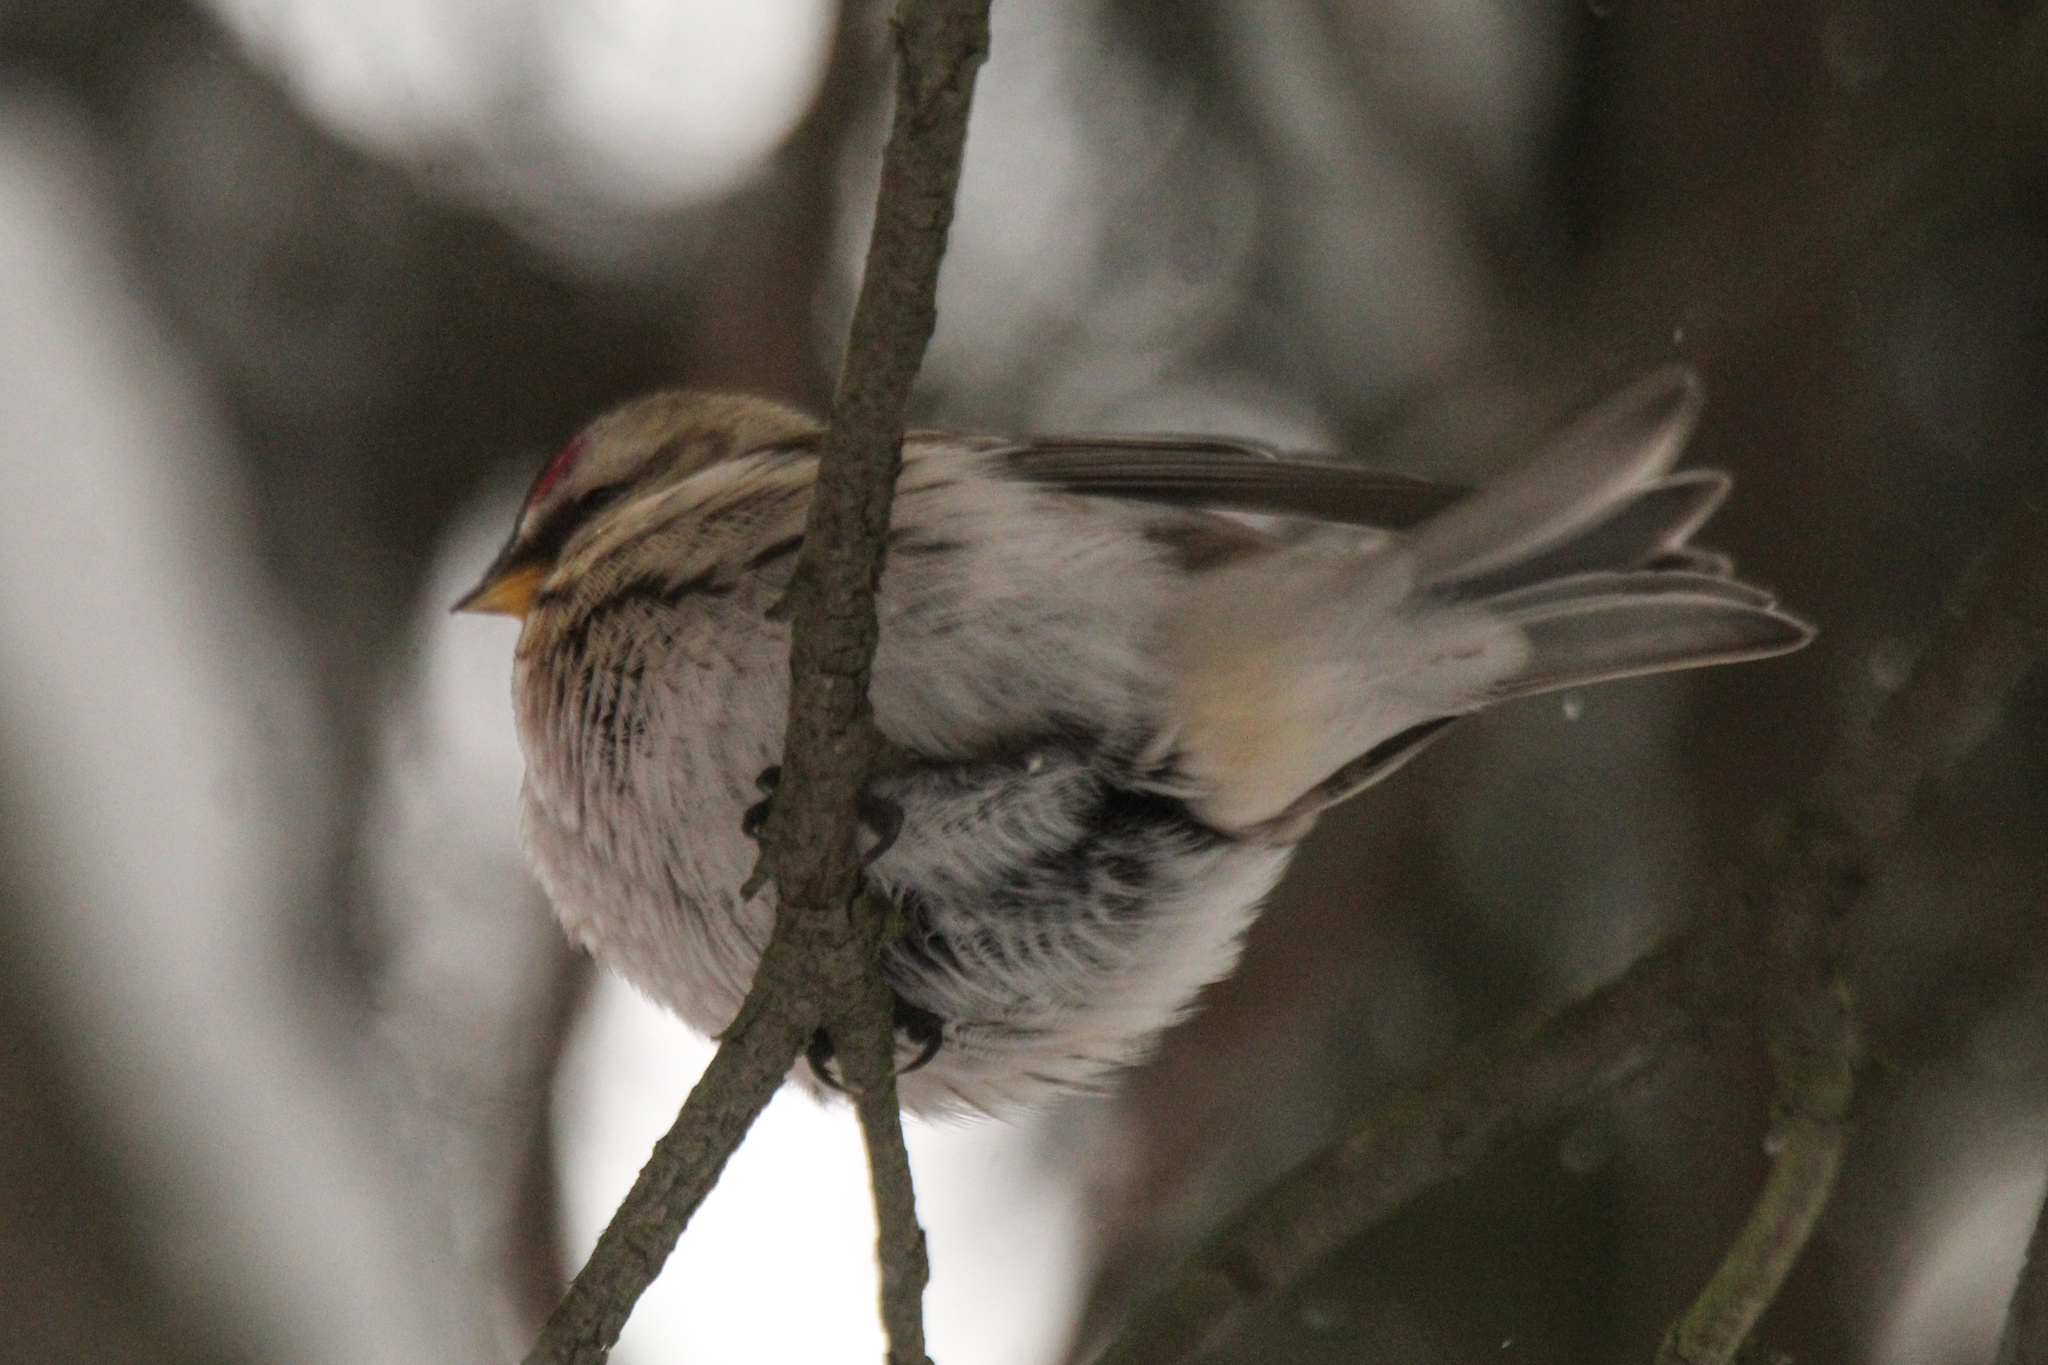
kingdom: Animalia
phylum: Chordata
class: Aves
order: Passeriformes
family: Fringillidae
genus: Acanthis
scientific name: Acanthis hornemanni
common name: Arctic redpoll
